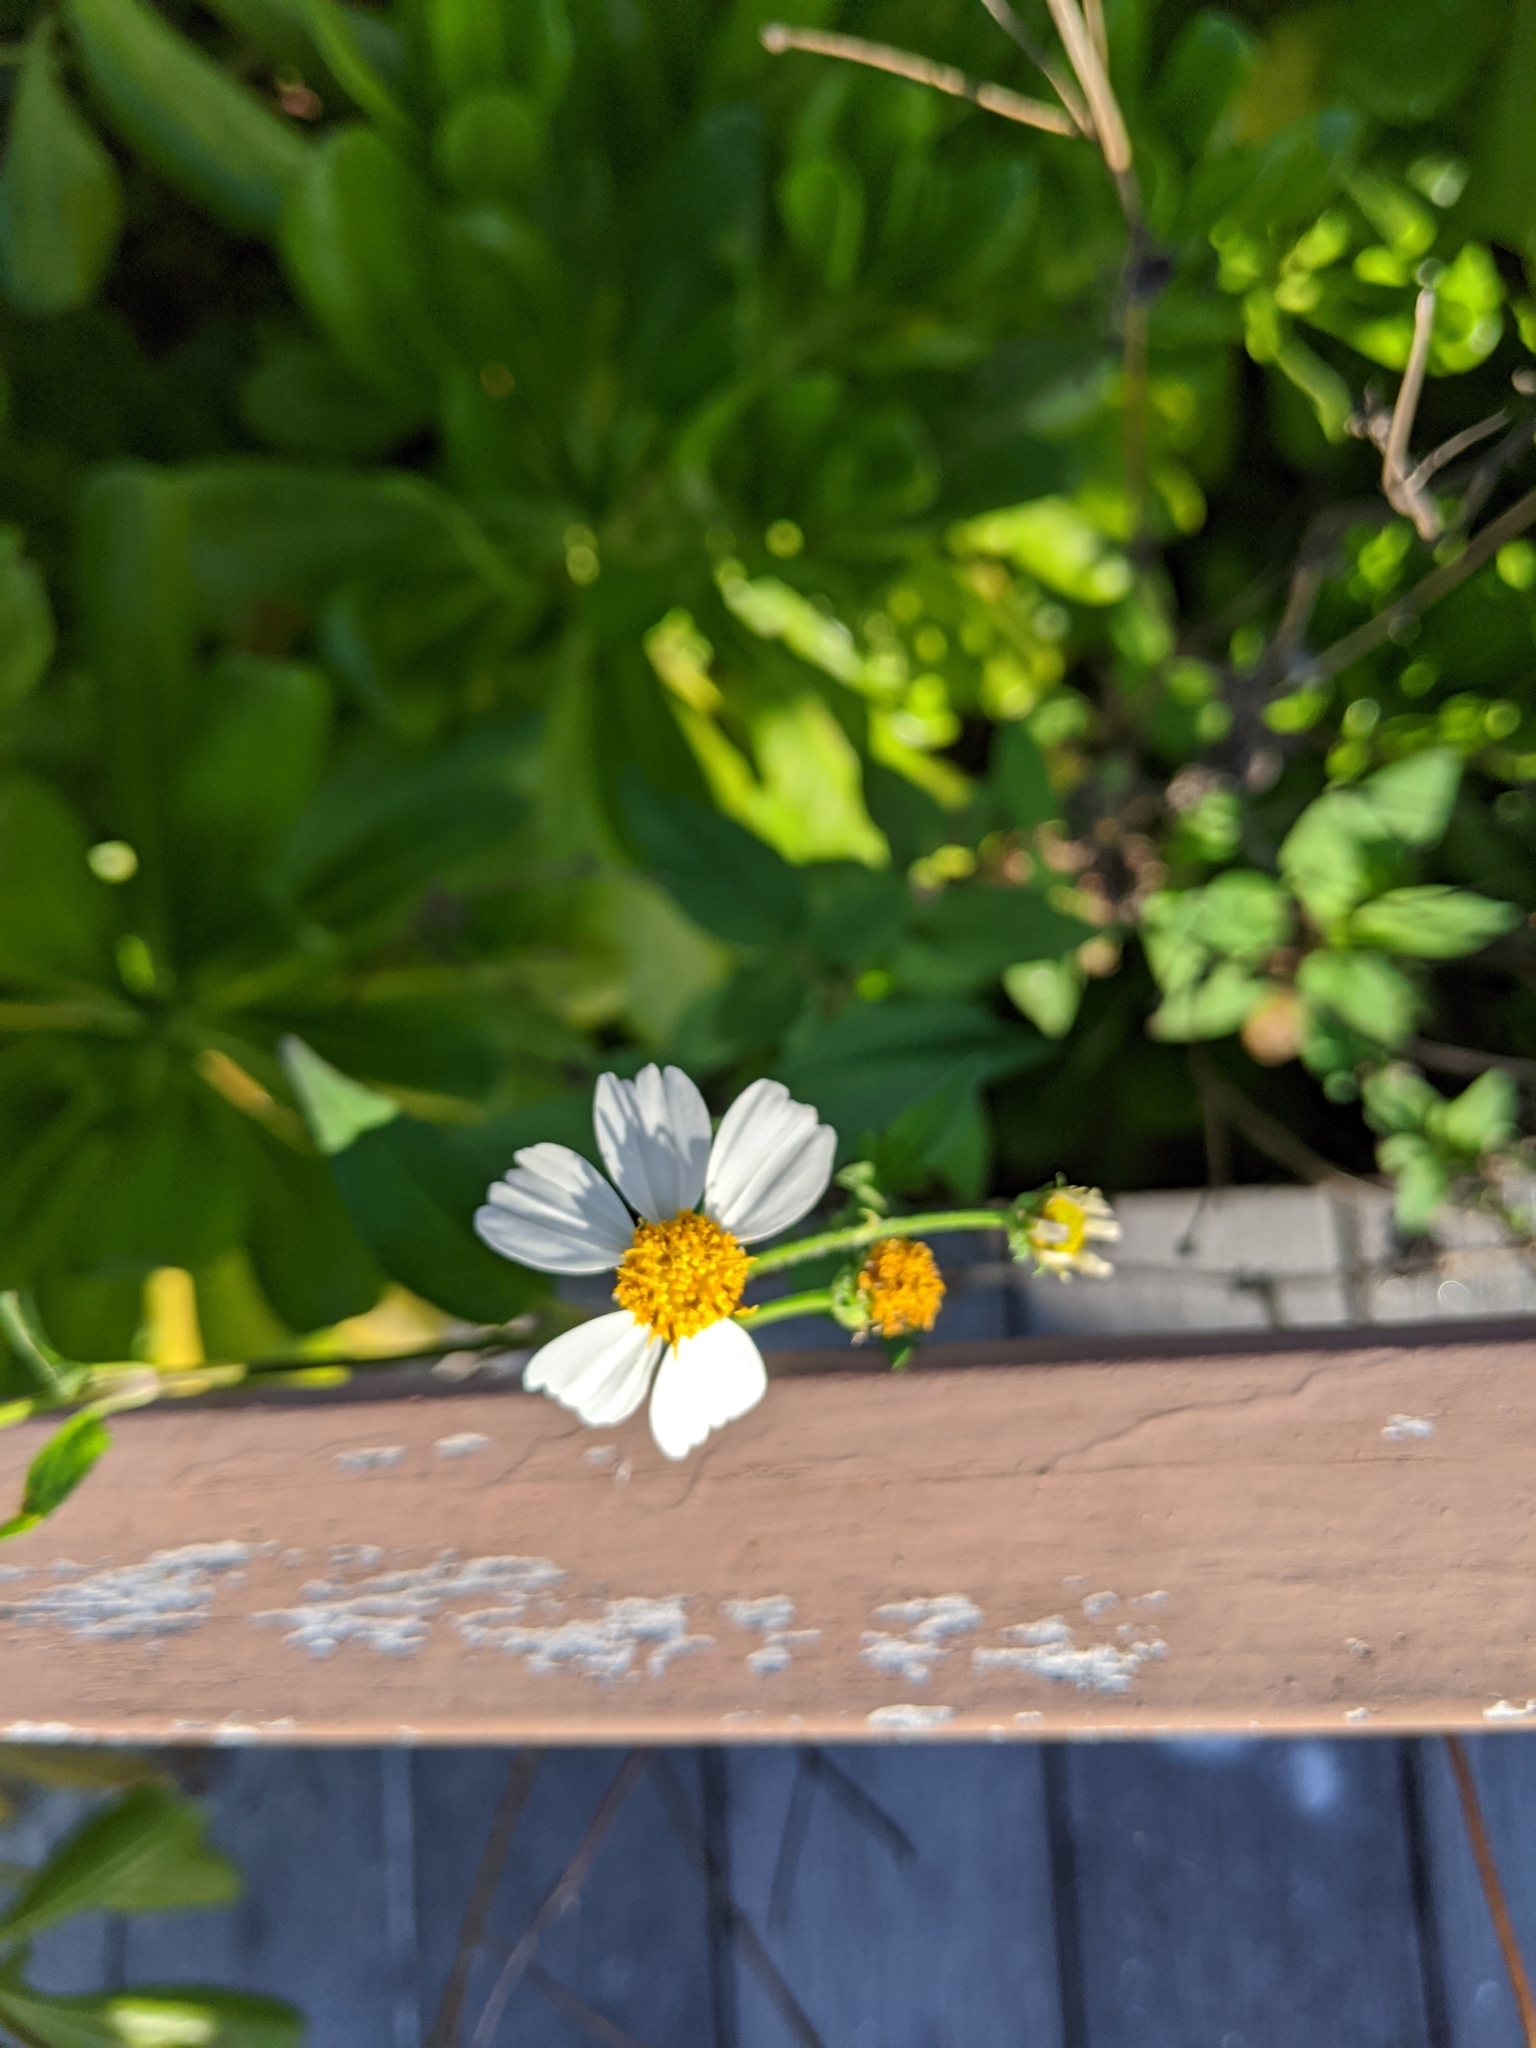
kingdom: Plantae
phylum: Tracheophyta
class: Magnoliopsida
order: Asterales
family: Asteraceae
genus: Bidens
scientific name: Bidens alba
